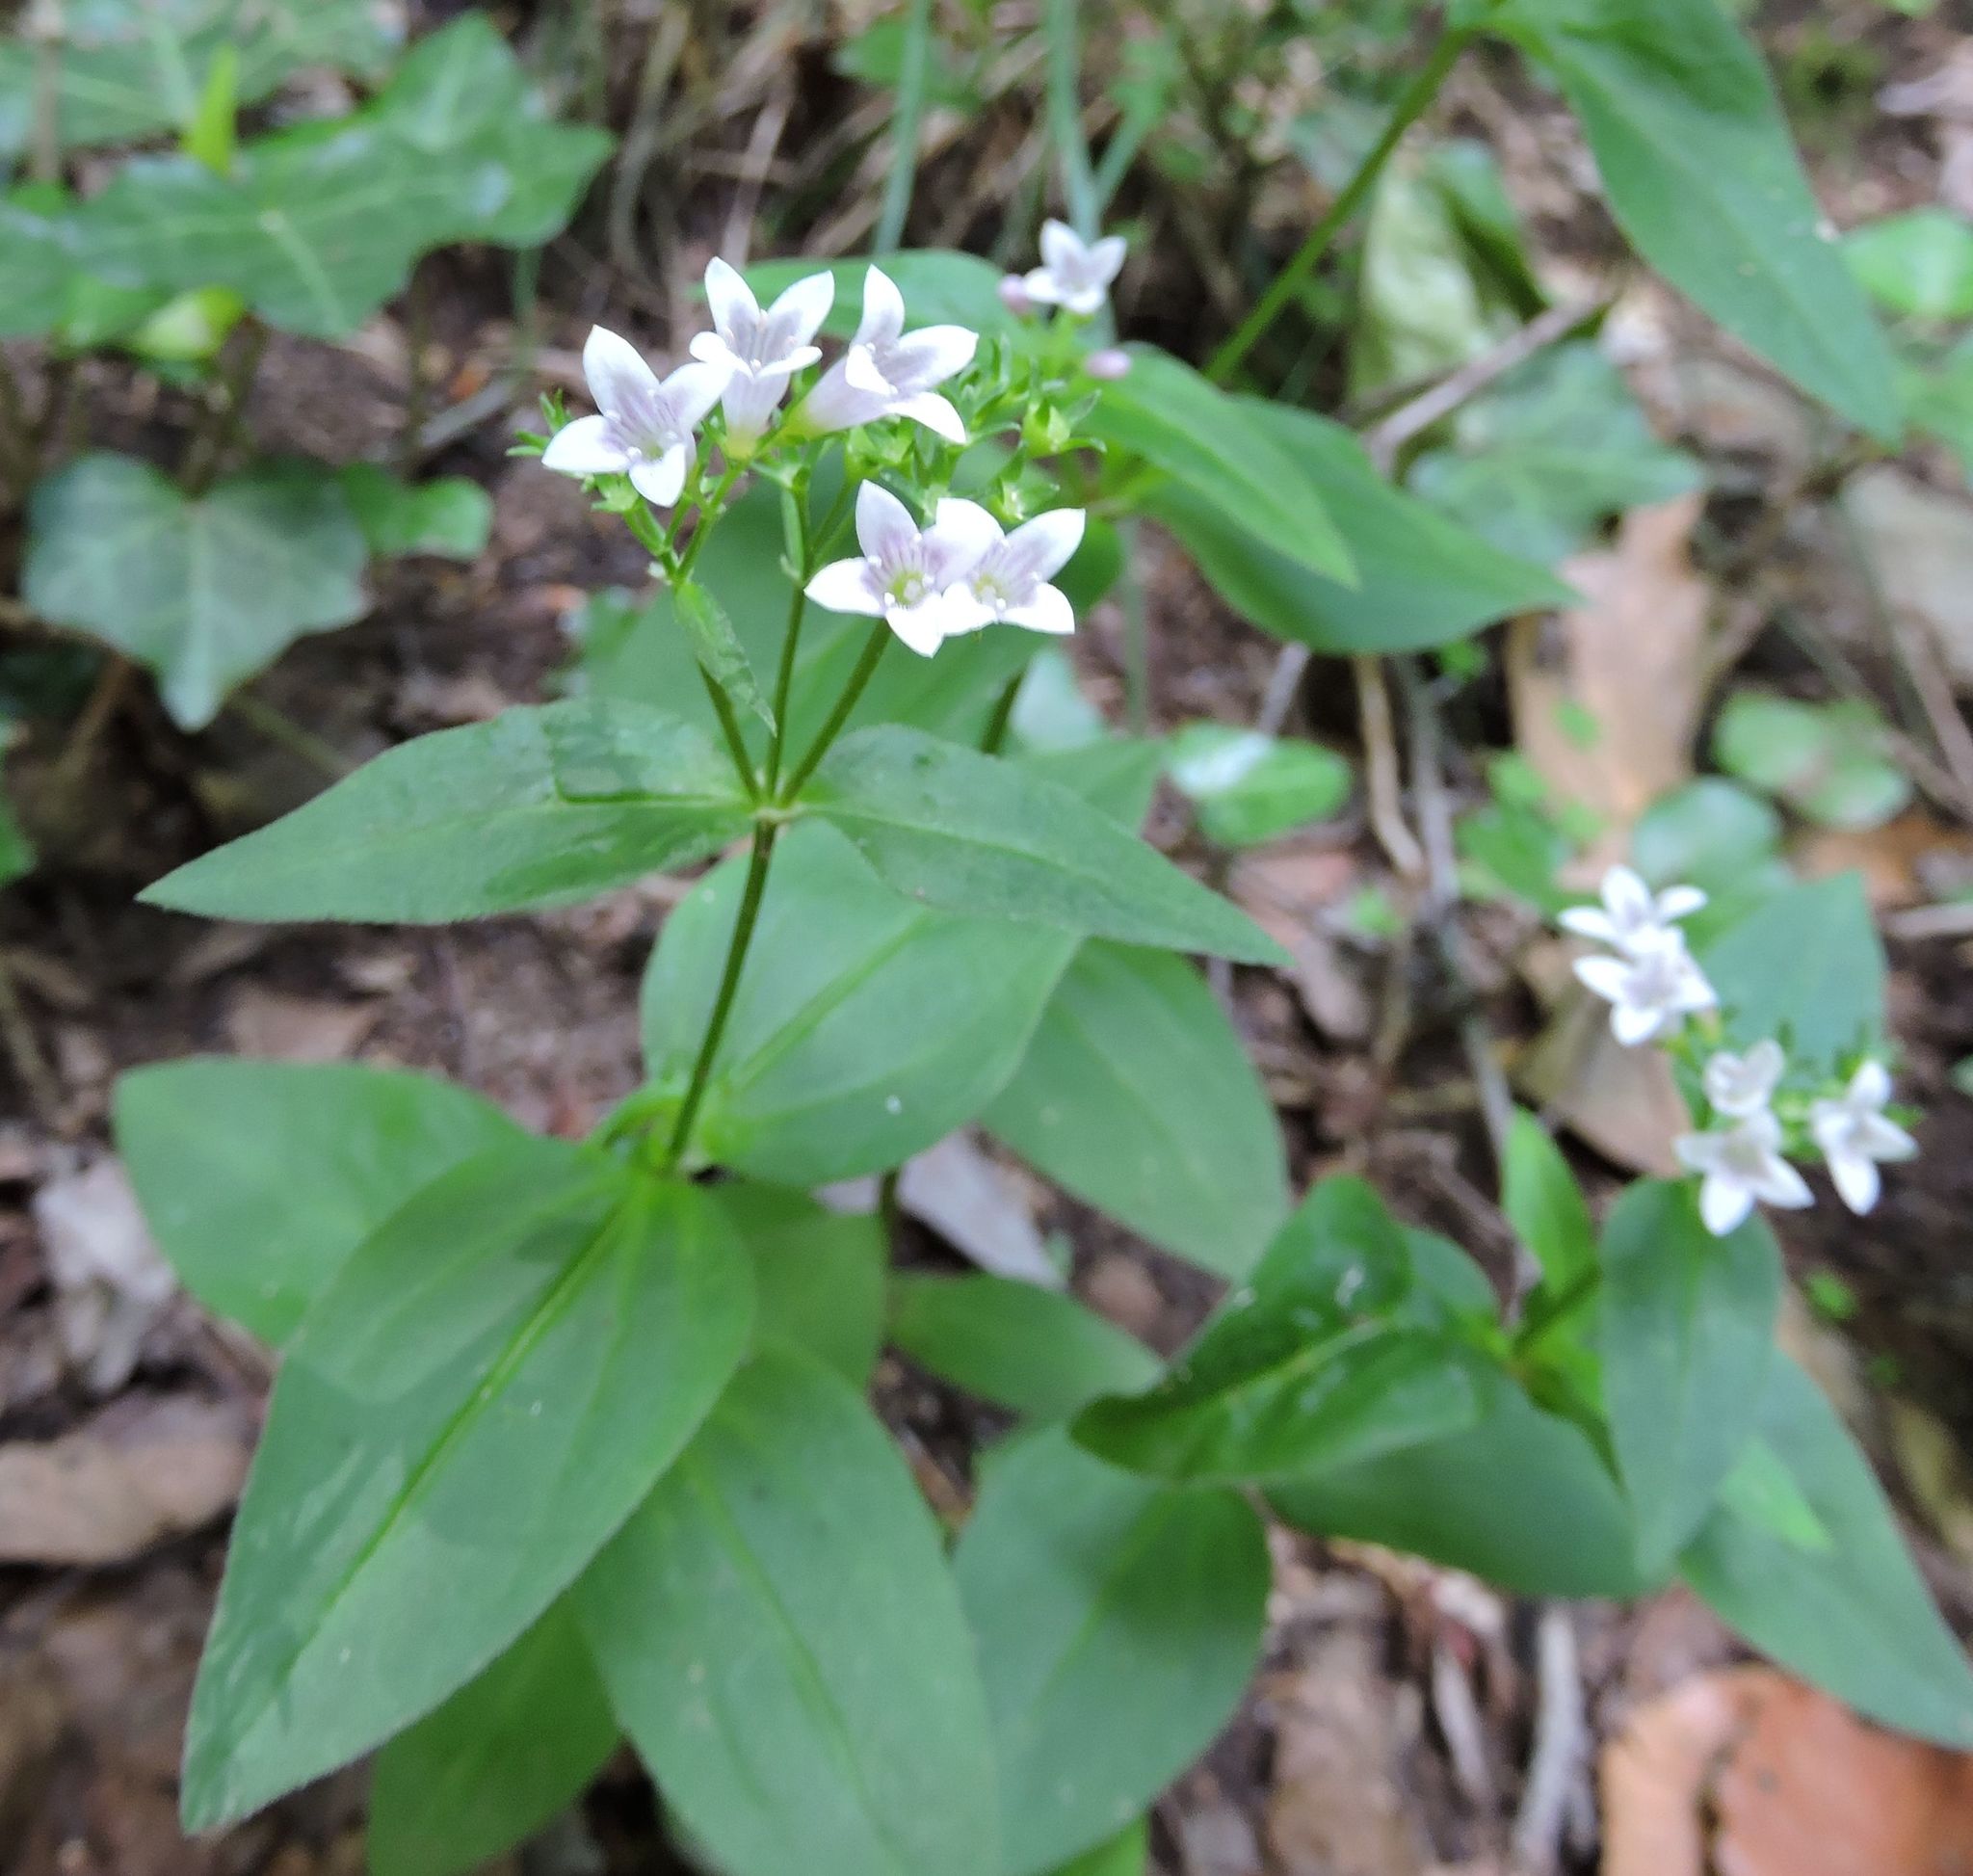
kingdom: Plantae
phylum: Tracheophyta
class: Magnoliopsida
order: Gentianales
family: Rubiaceae
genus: Houstonia
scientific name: Houstonia purpurea
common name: Summer bluet
